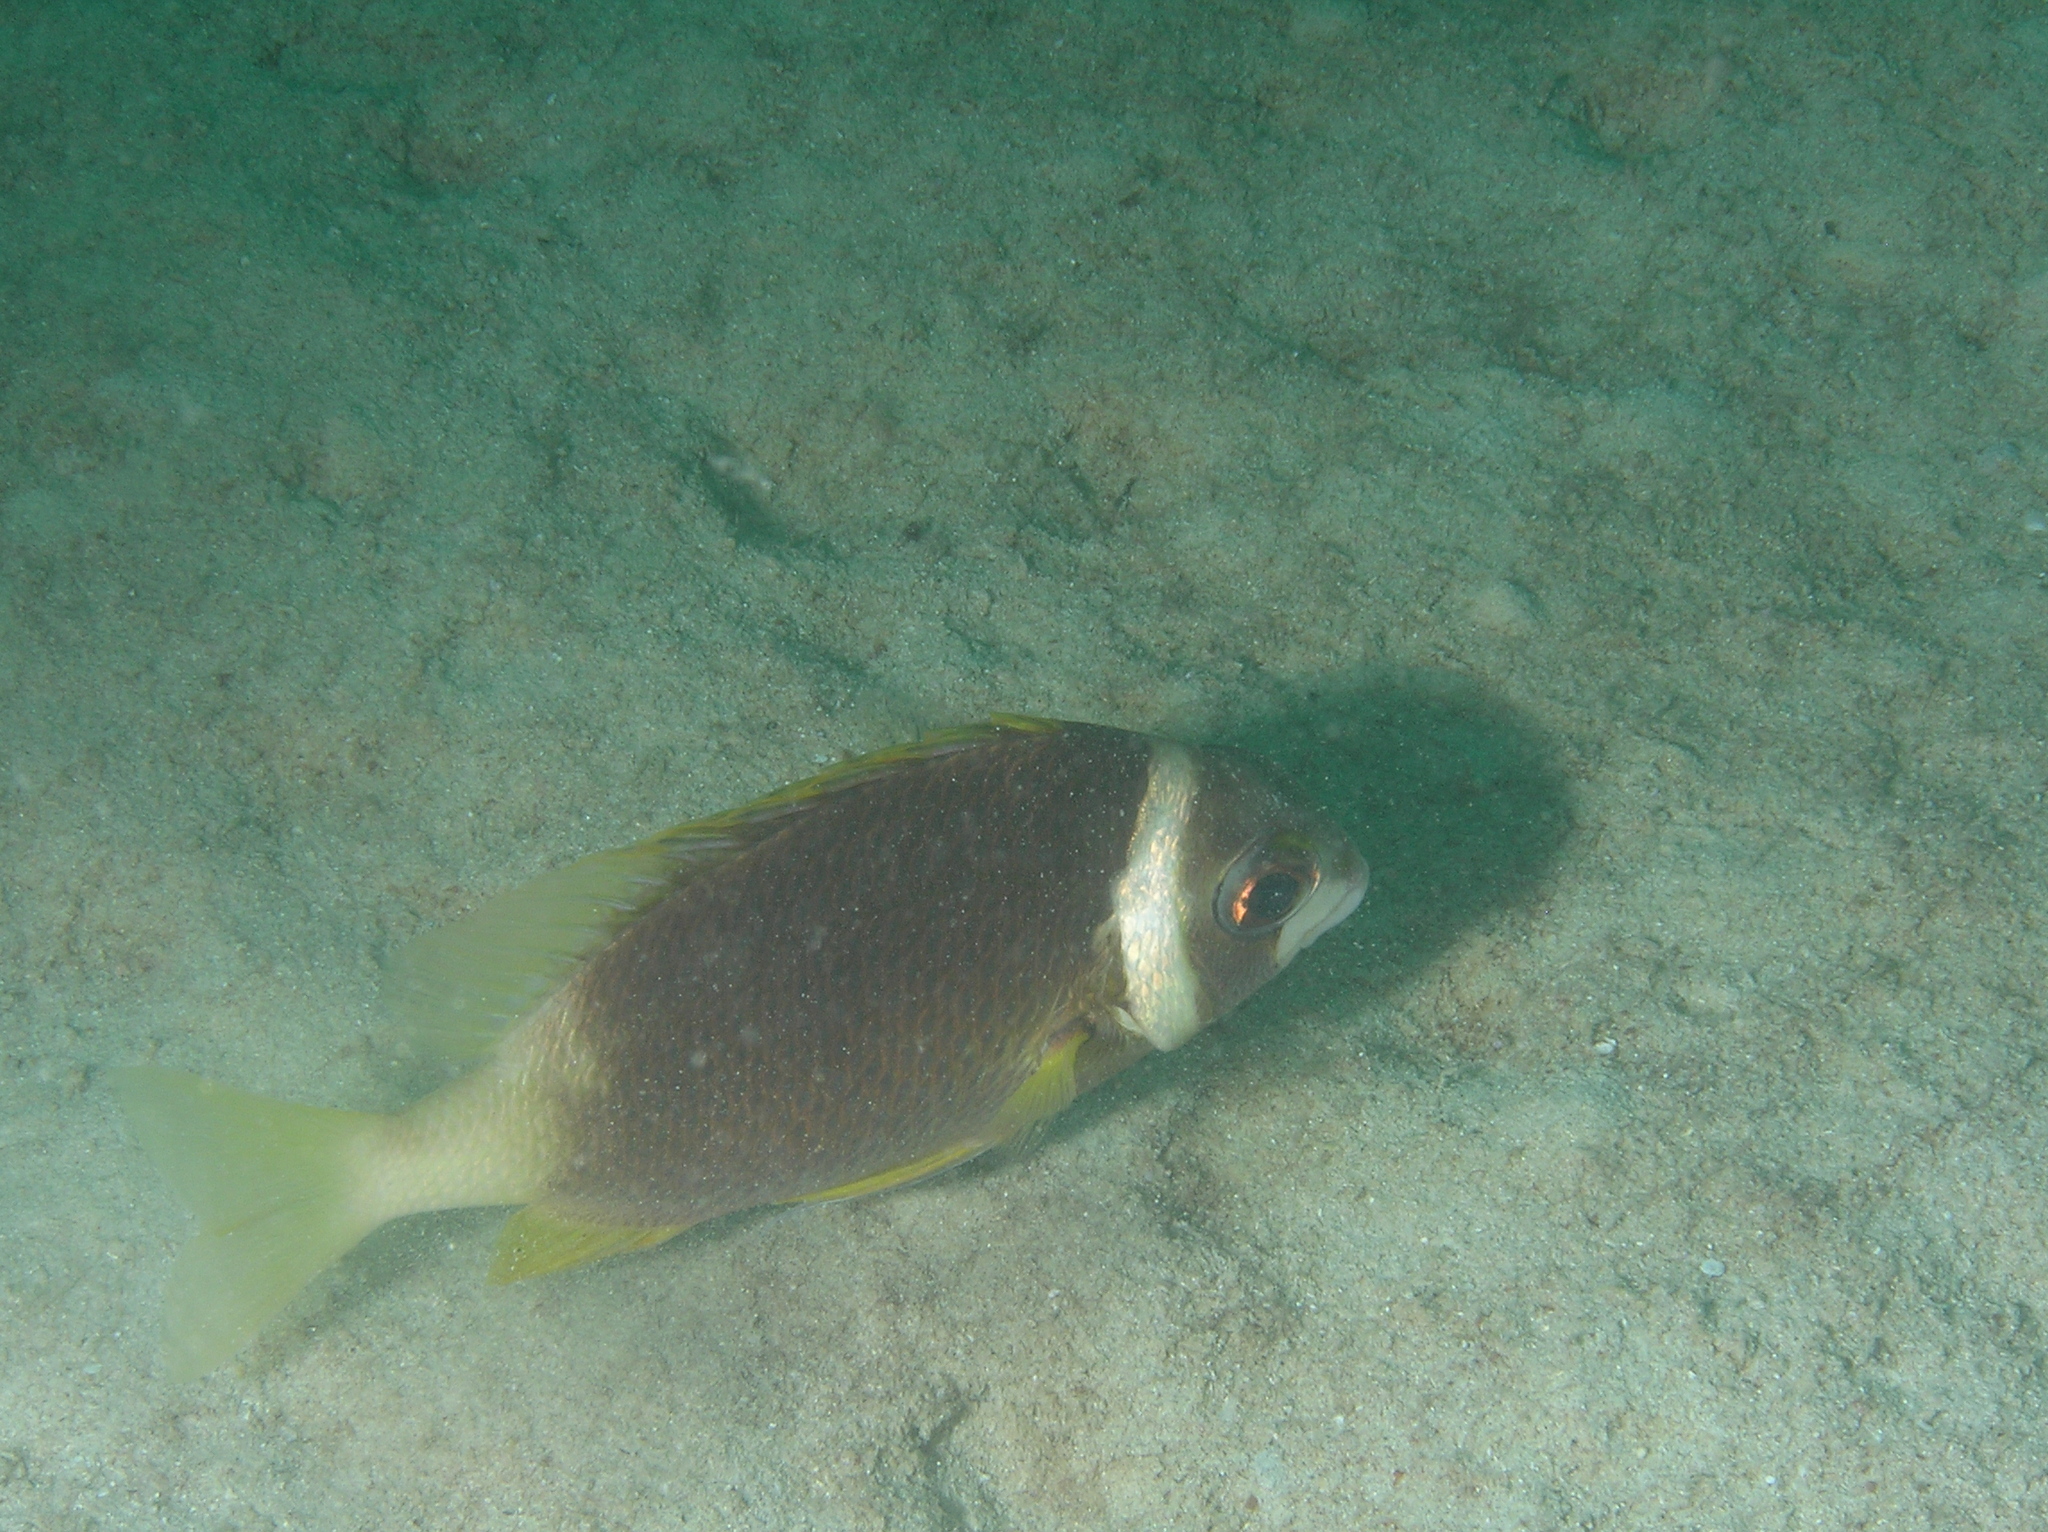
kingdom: Animalia
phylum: Chordata
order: Perciformes
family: Nemipteridae
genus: Scolopsis
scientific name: Scolopsis vosmeri
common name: Whitecheek monocle bream
